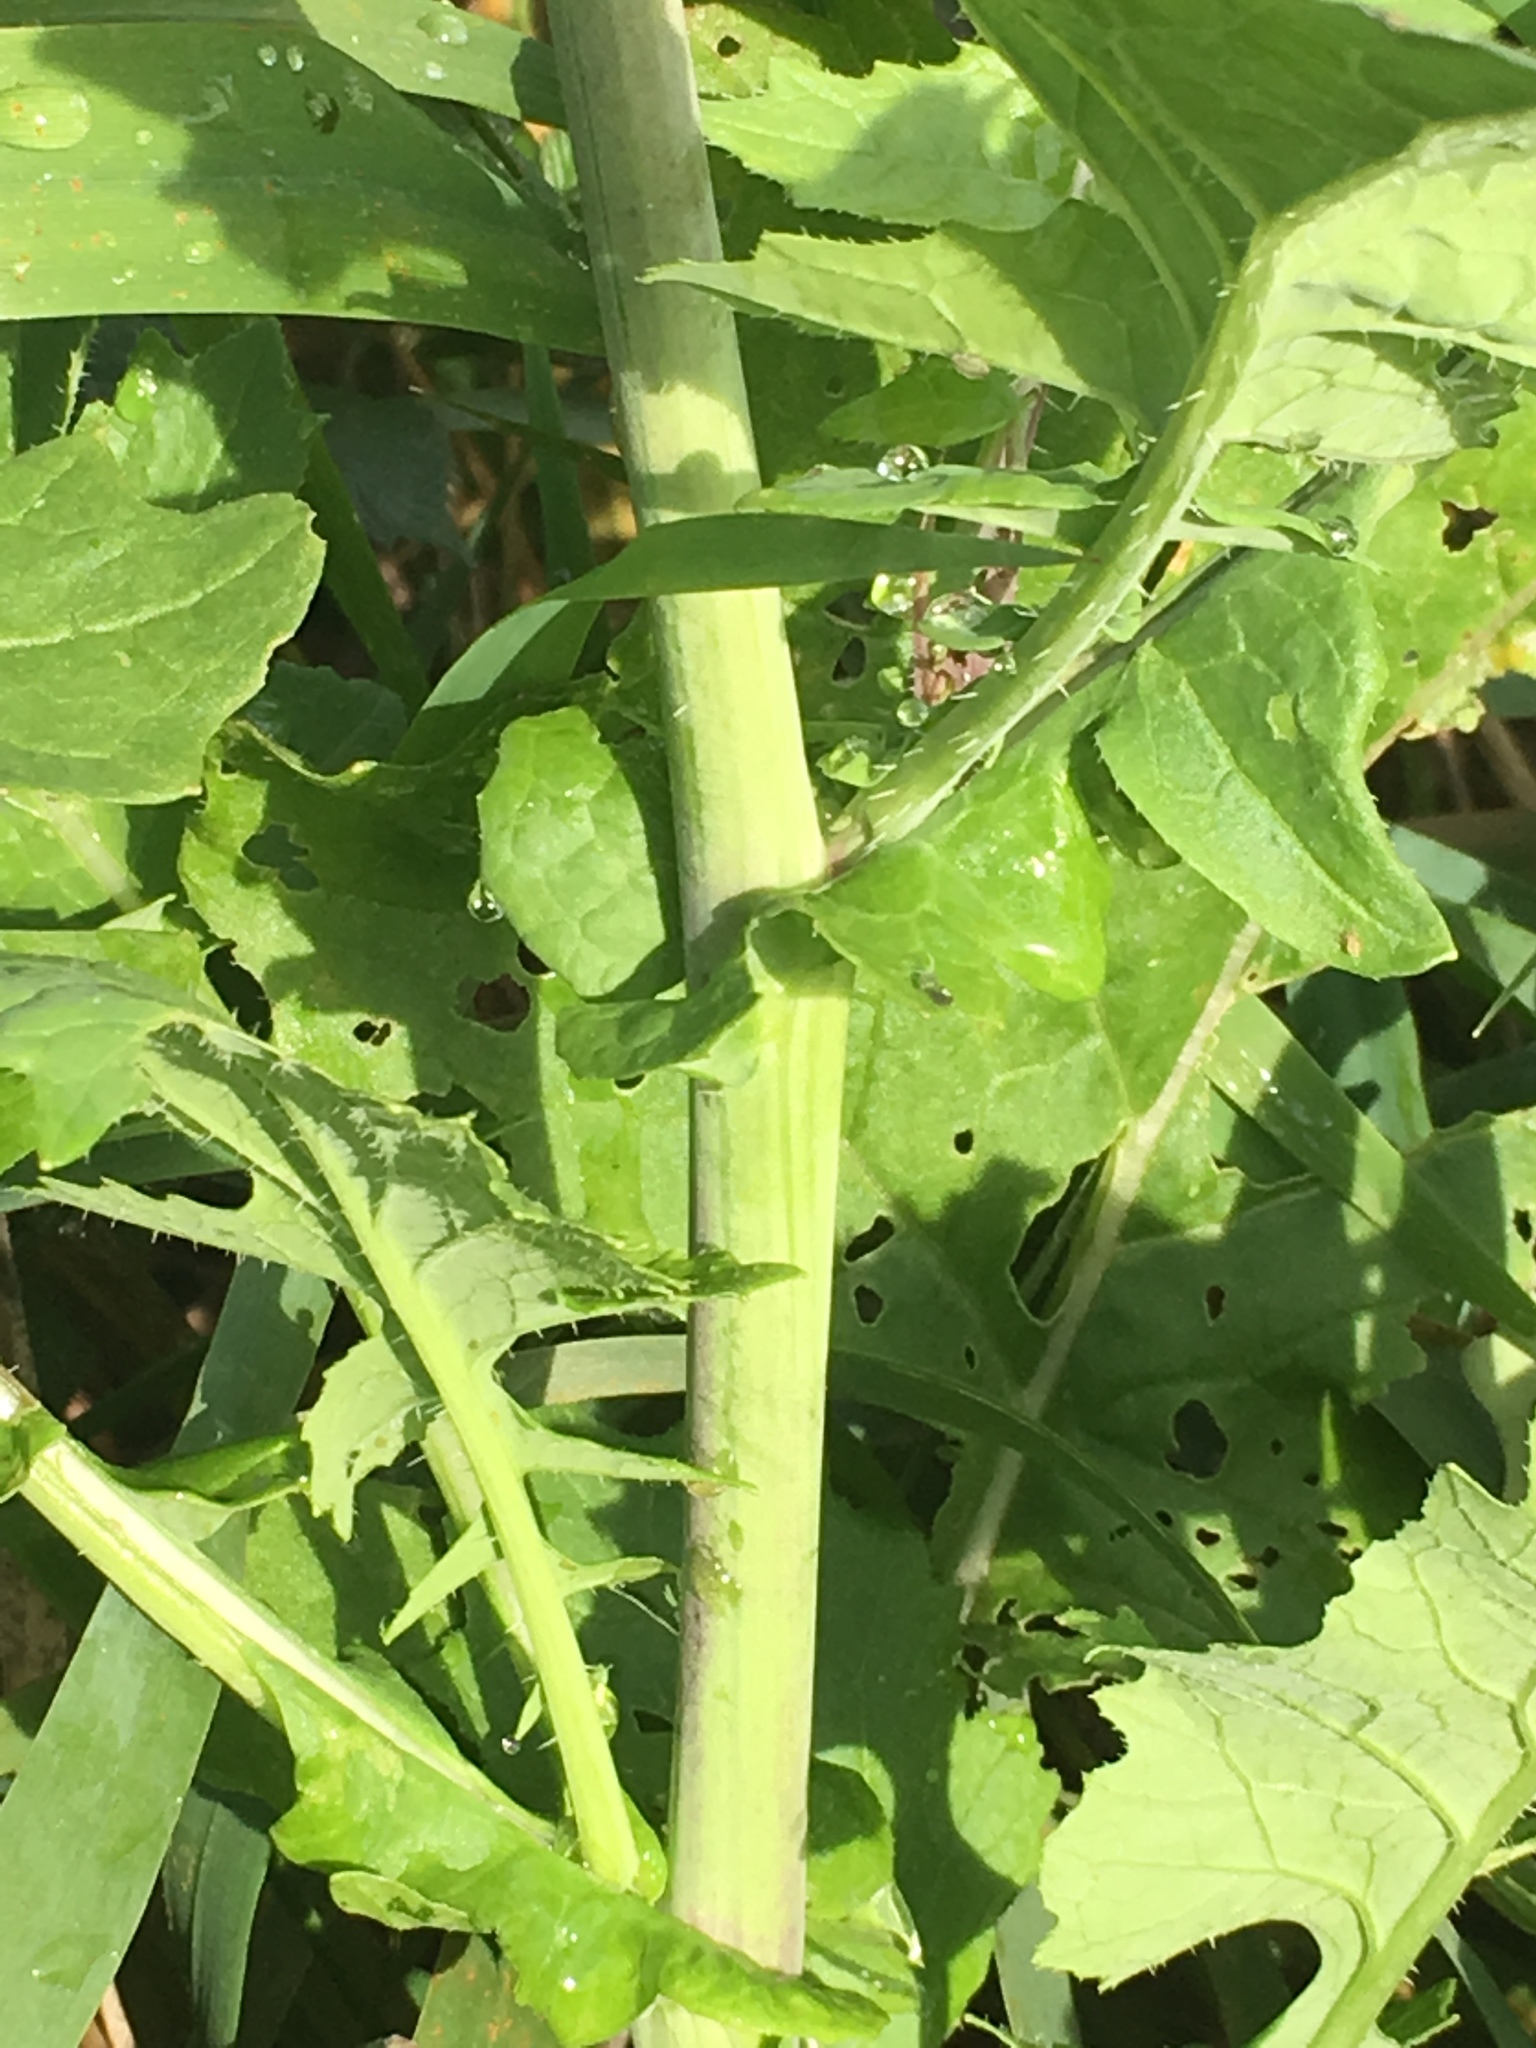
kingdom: Plantae
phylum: Tracheophyta
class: Magnoliopsida
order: Brassicales
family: Brassicaceae
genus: Brassica
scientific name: Brassica rapa
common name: Field mustard
